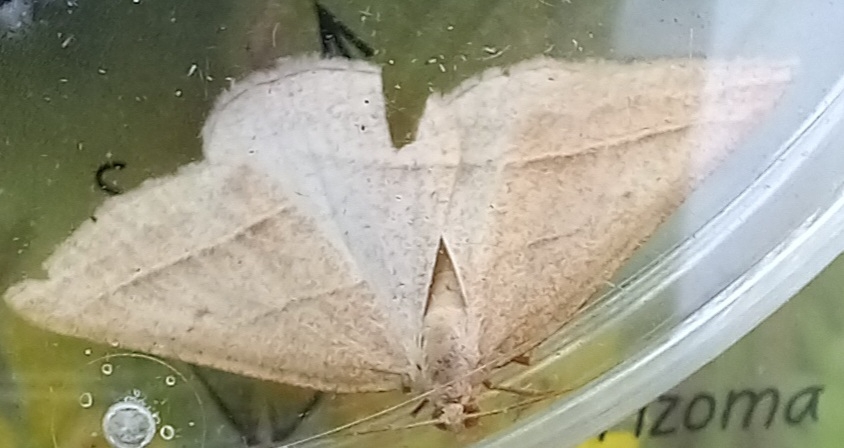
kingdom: Animalia
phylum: Arthropoda
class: Insecta
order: Lepidoptera
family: Pterophoridae
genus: Pterophorus
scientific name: Pterophorus Petrophora chlorosata
